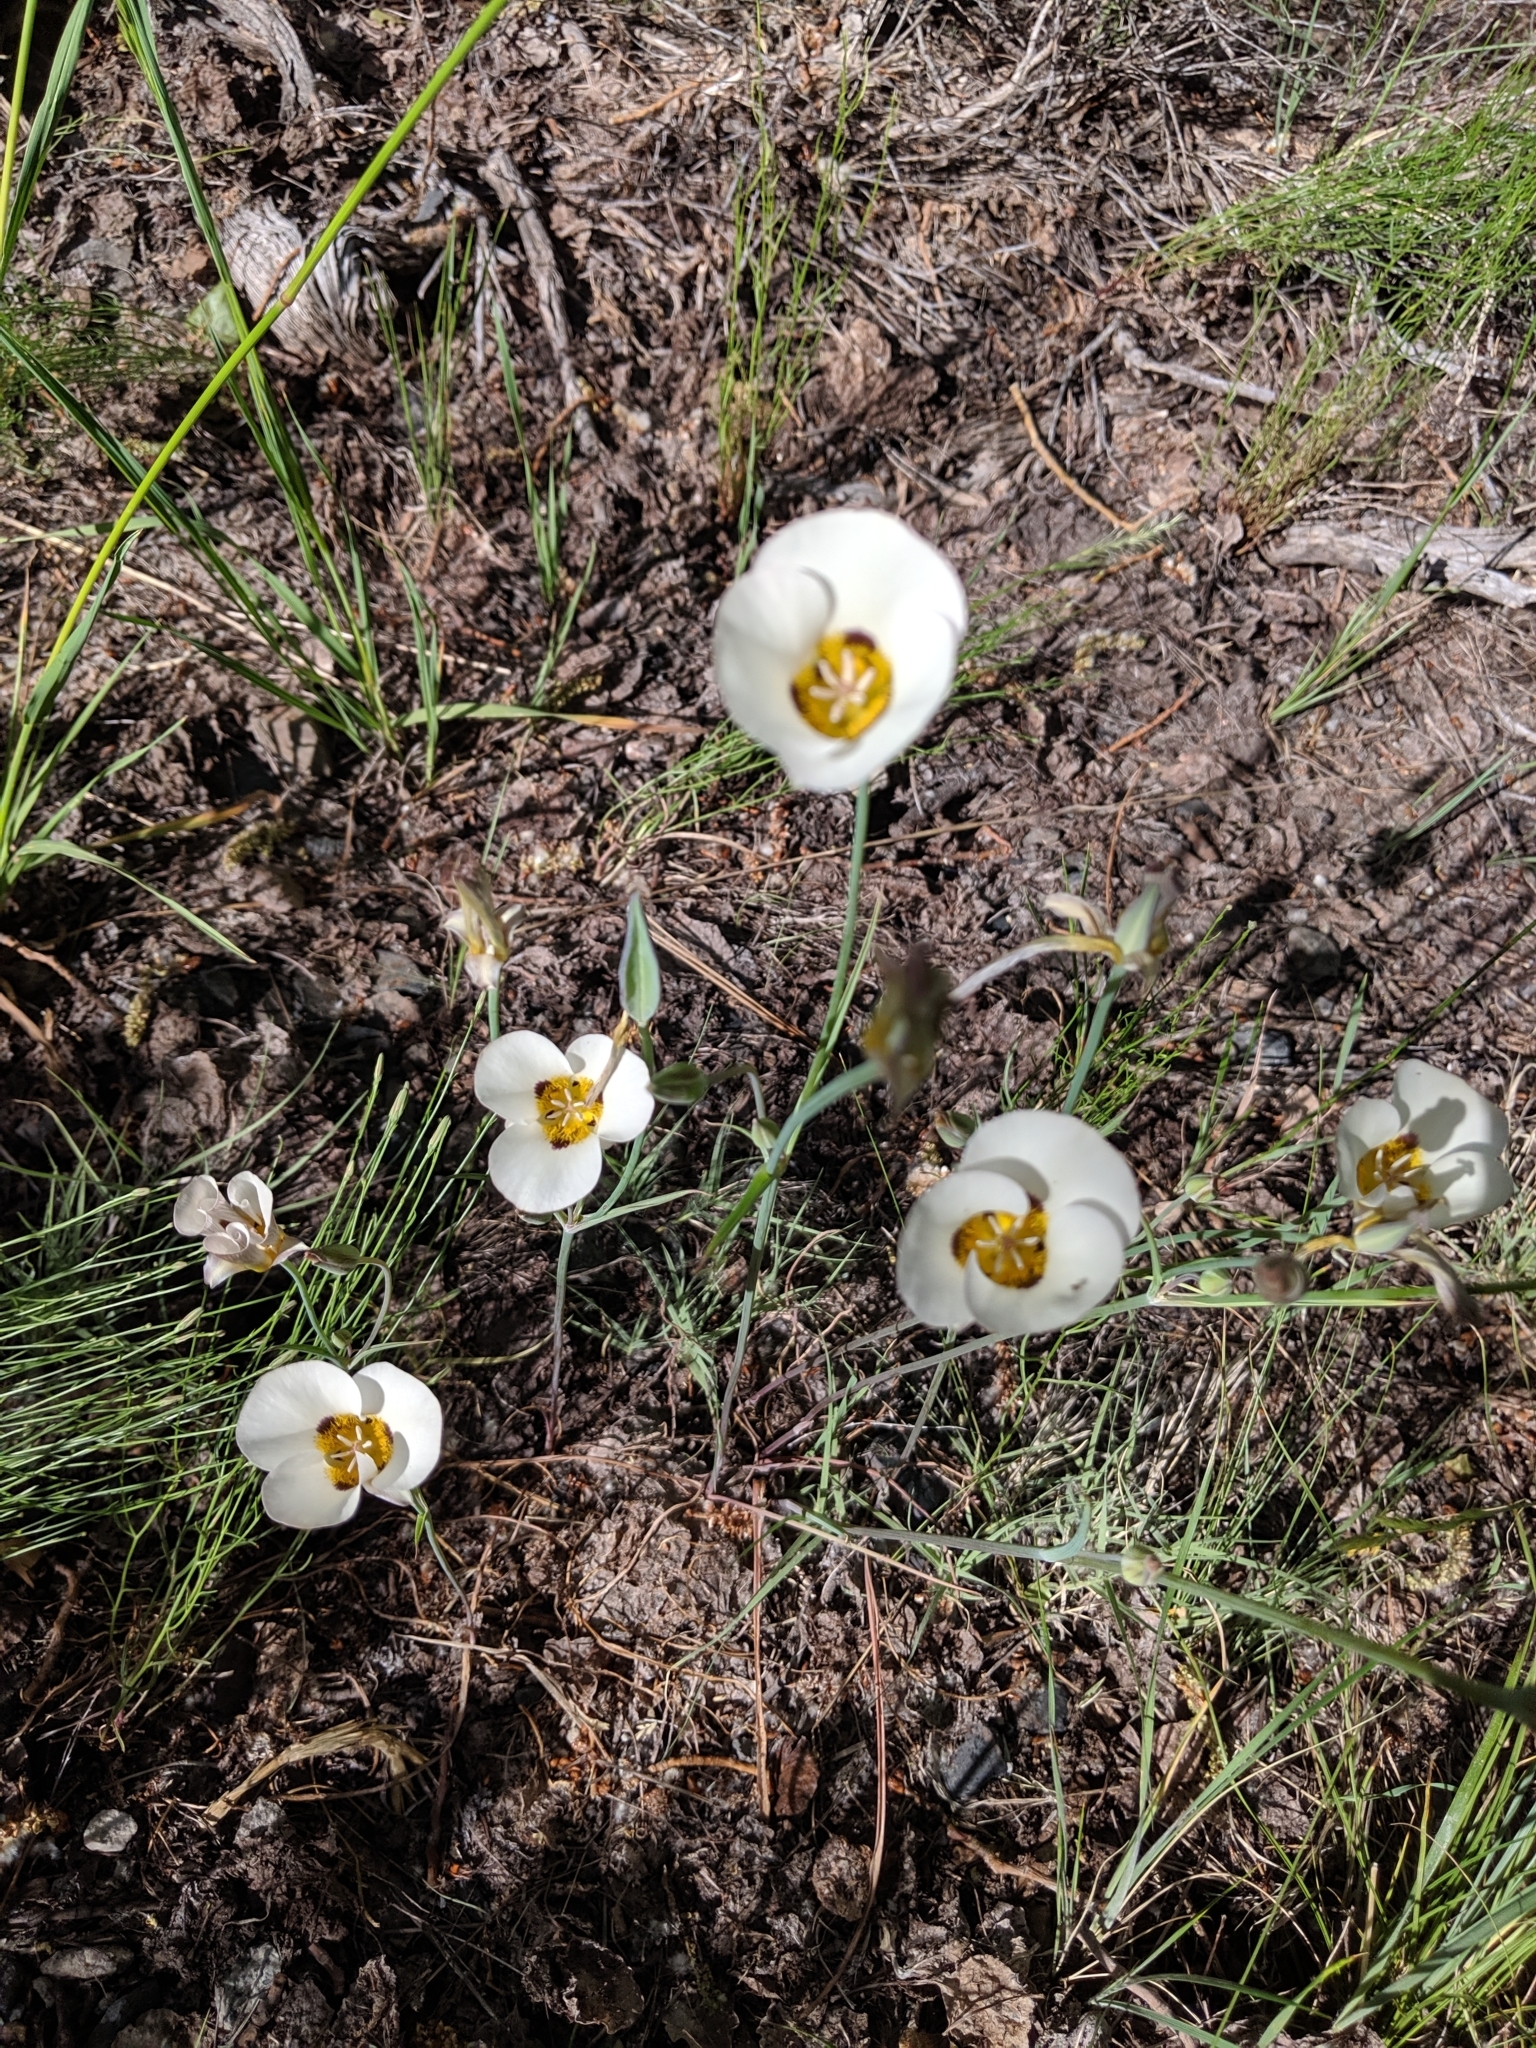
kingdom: Plantae
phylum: Tracheophyta
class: Liliopsida
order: Liliales
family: Liliaceae
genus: Calochortus
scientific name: Calochortus leichtlinii
